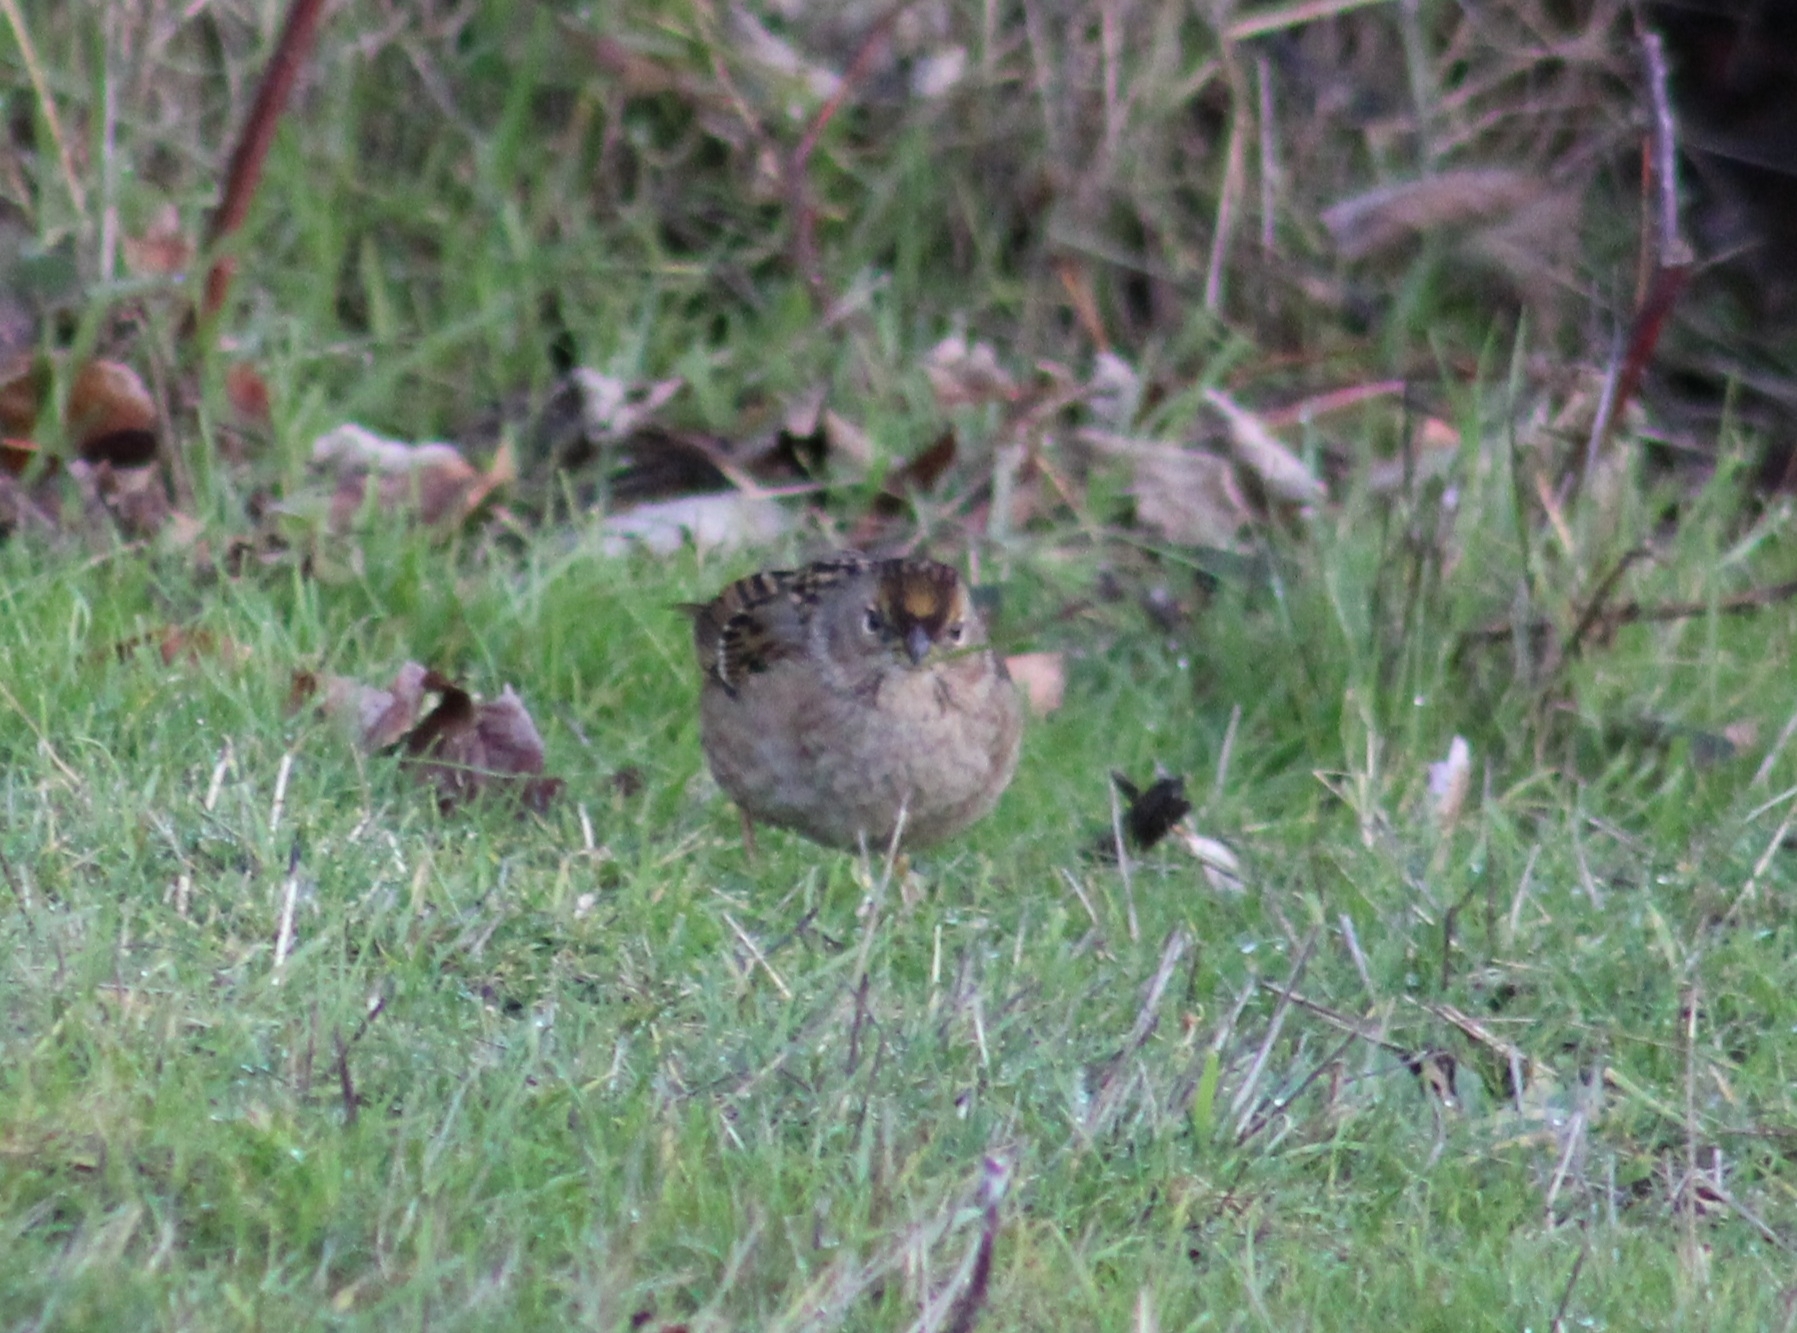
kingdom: Animalia
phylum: Chordata
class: Aves
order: Passeriformes
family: Passerellidae
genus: Zonotrichia
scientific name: Zonotrichia atricapilla
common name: Golden-crowned sparrow
